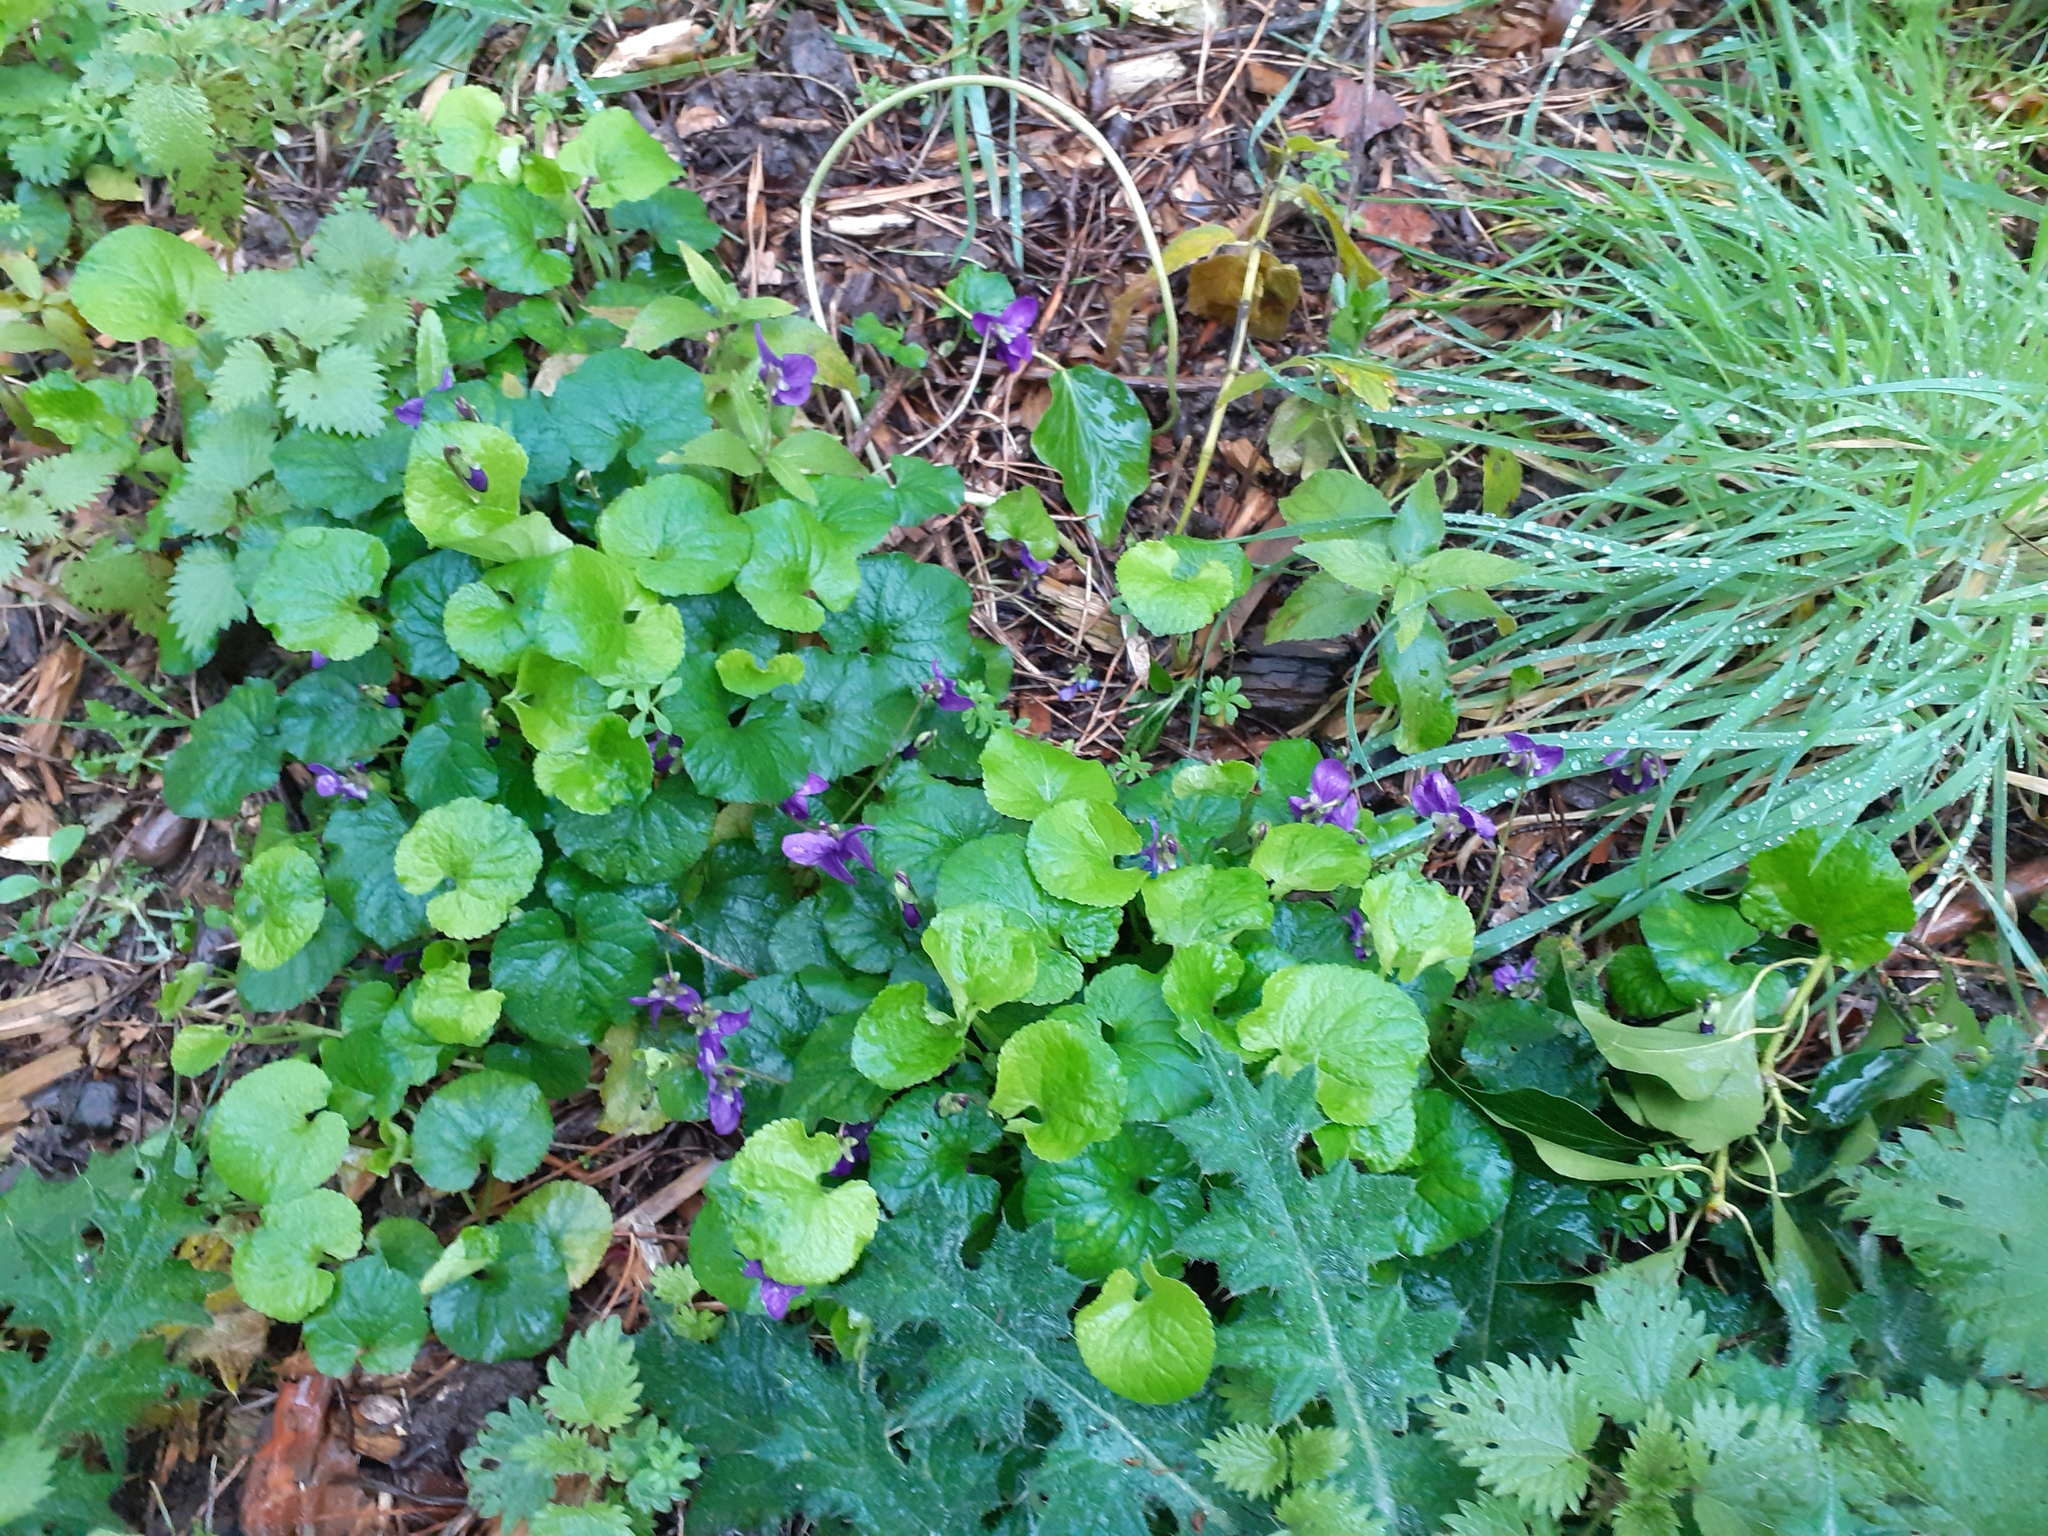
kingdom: Plantae
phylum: Tracheophyta
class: Magnoliopsida
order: Malpighiales
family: Violaceae
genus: Viola
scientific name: Viola odorata
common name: Sweet violet
